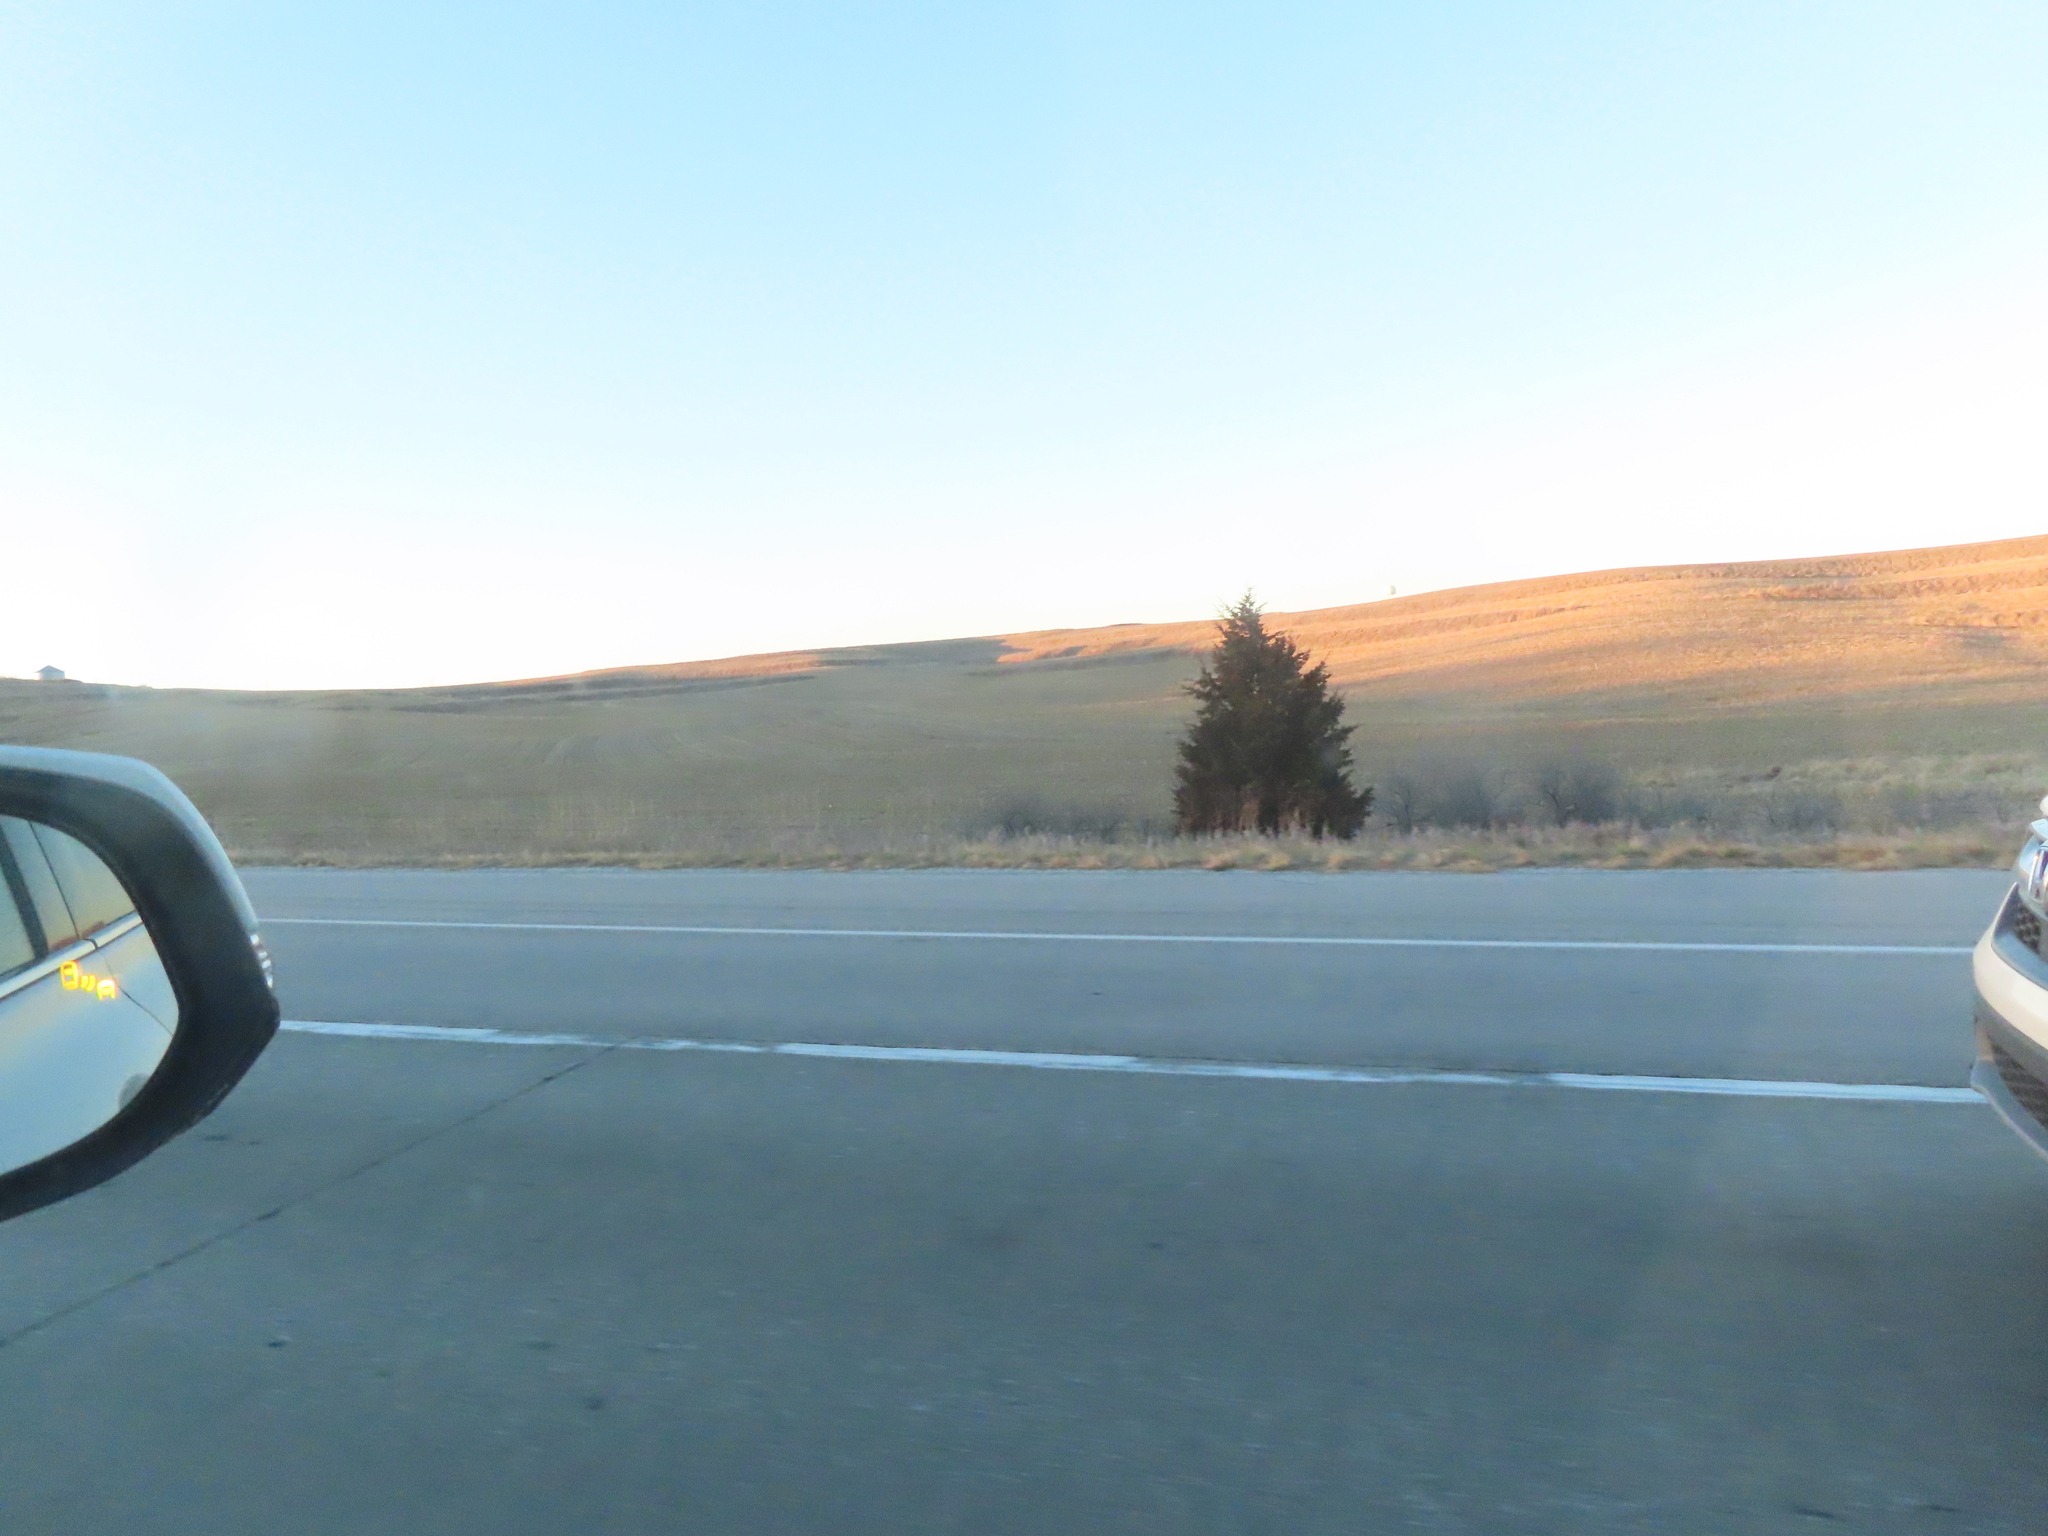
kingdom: Plantae
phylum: Tracheophyta
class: Pinopsida
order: Pinales
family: Cupressaceae
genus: Juniperus
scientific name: Juniperus virginiana
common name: Red juniper
